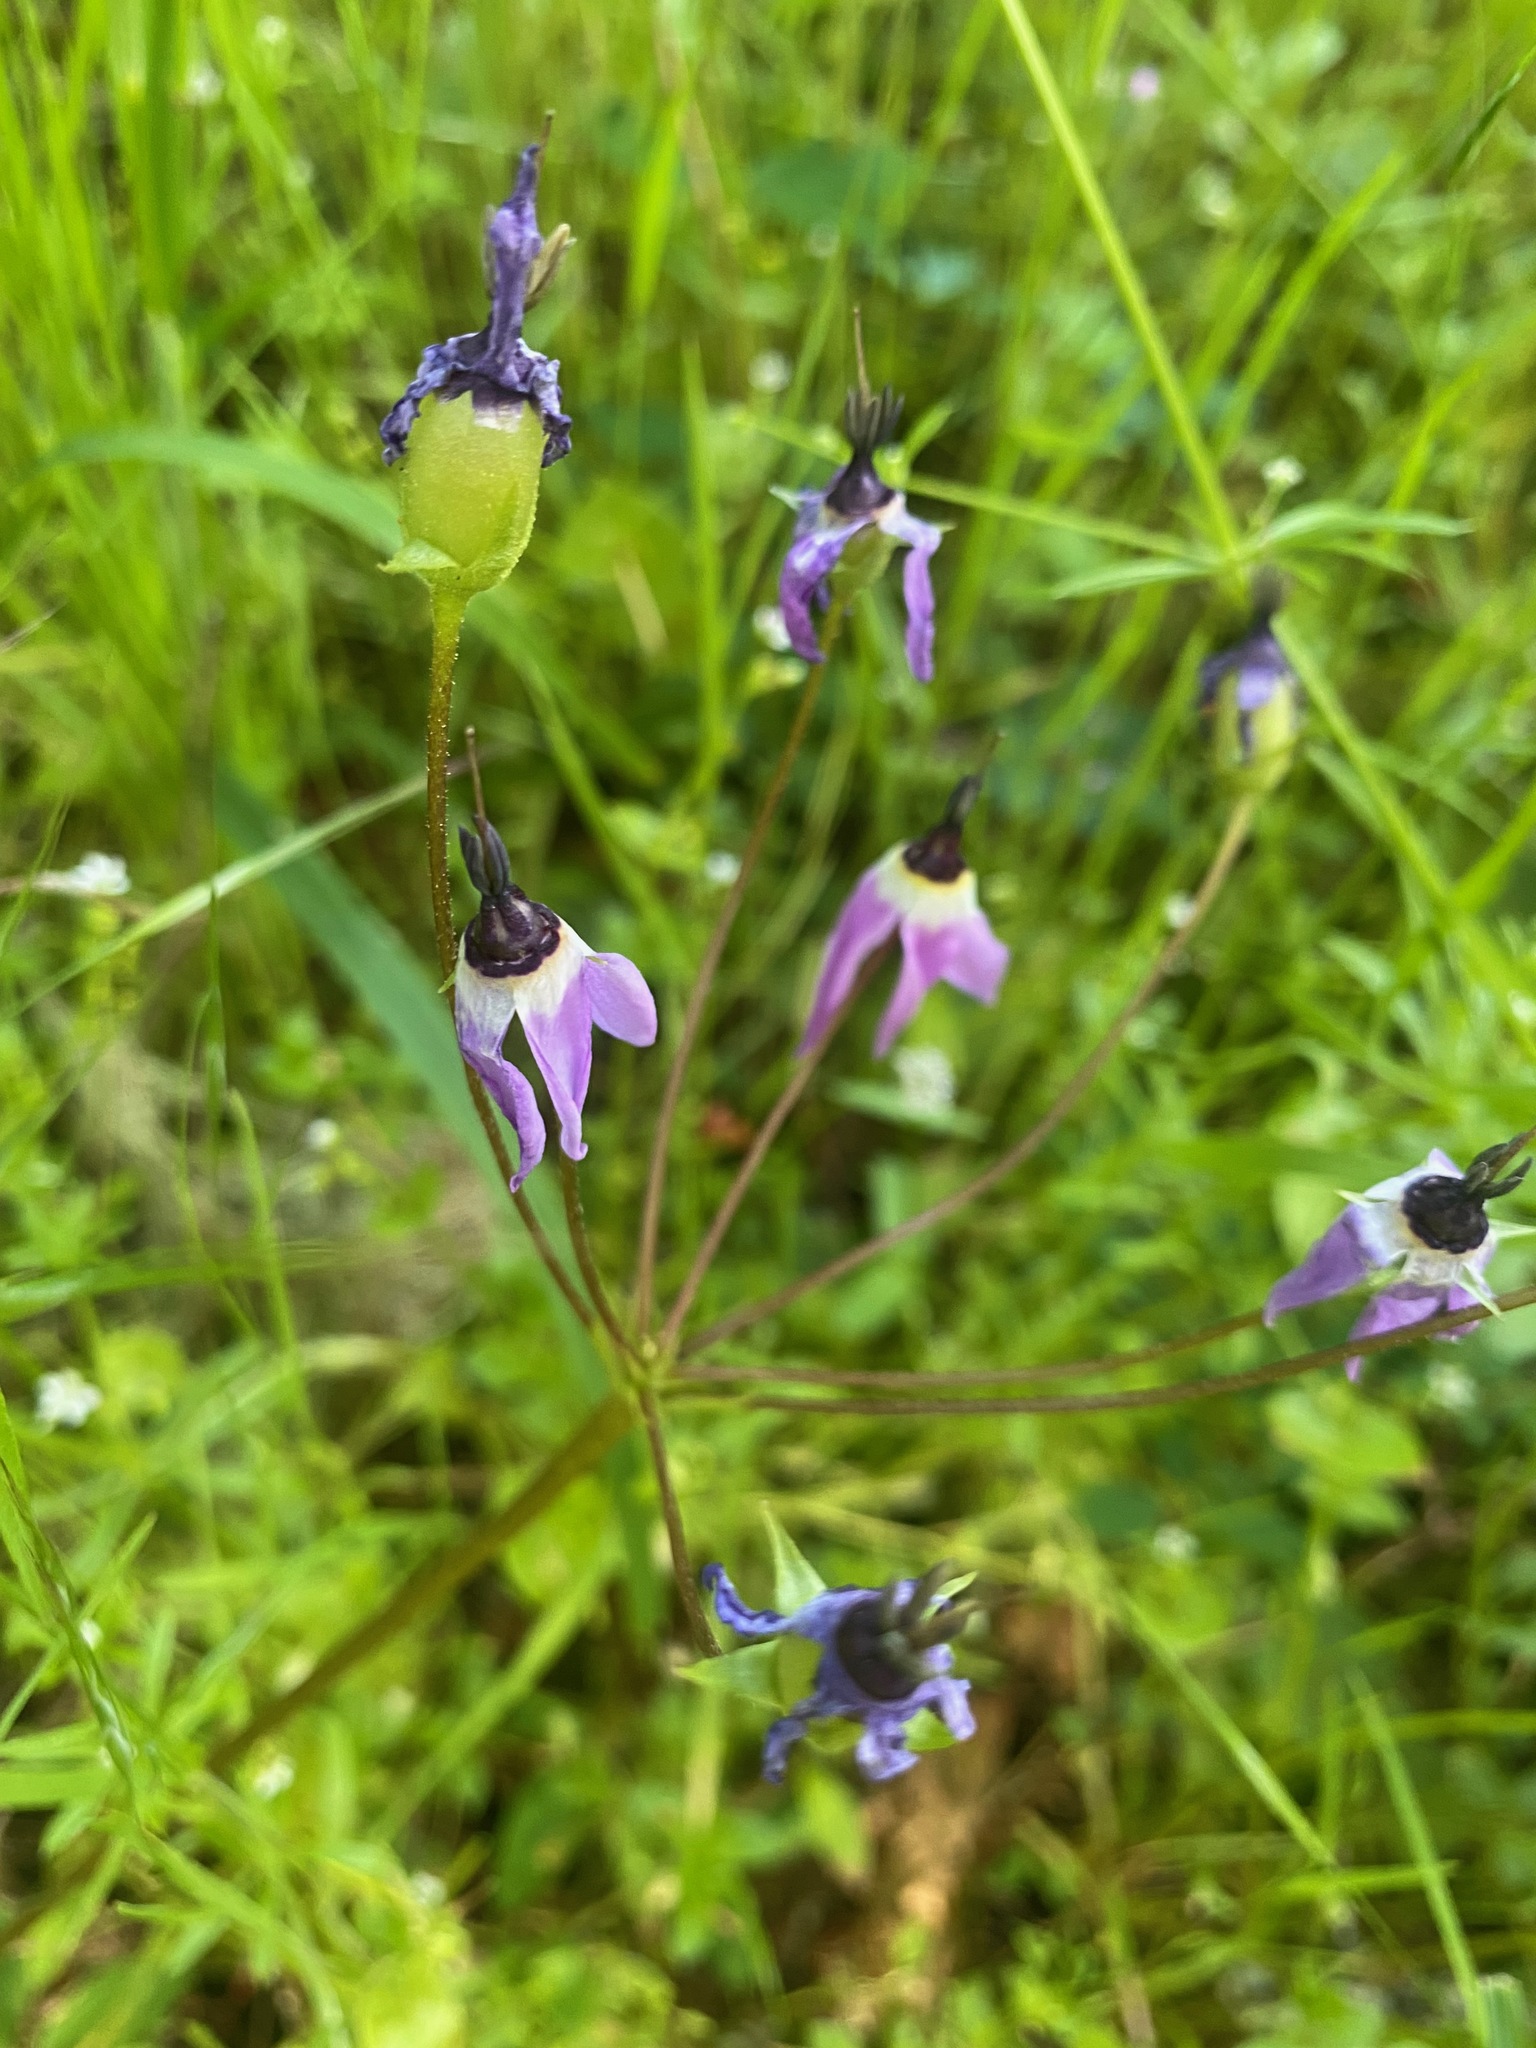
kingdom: Plantae
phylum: Tracheophyta
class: Magnoliopsida
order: Ericales
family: Primulaceae
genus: Dodecatheon
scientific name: Dodecatheon hendersonii
